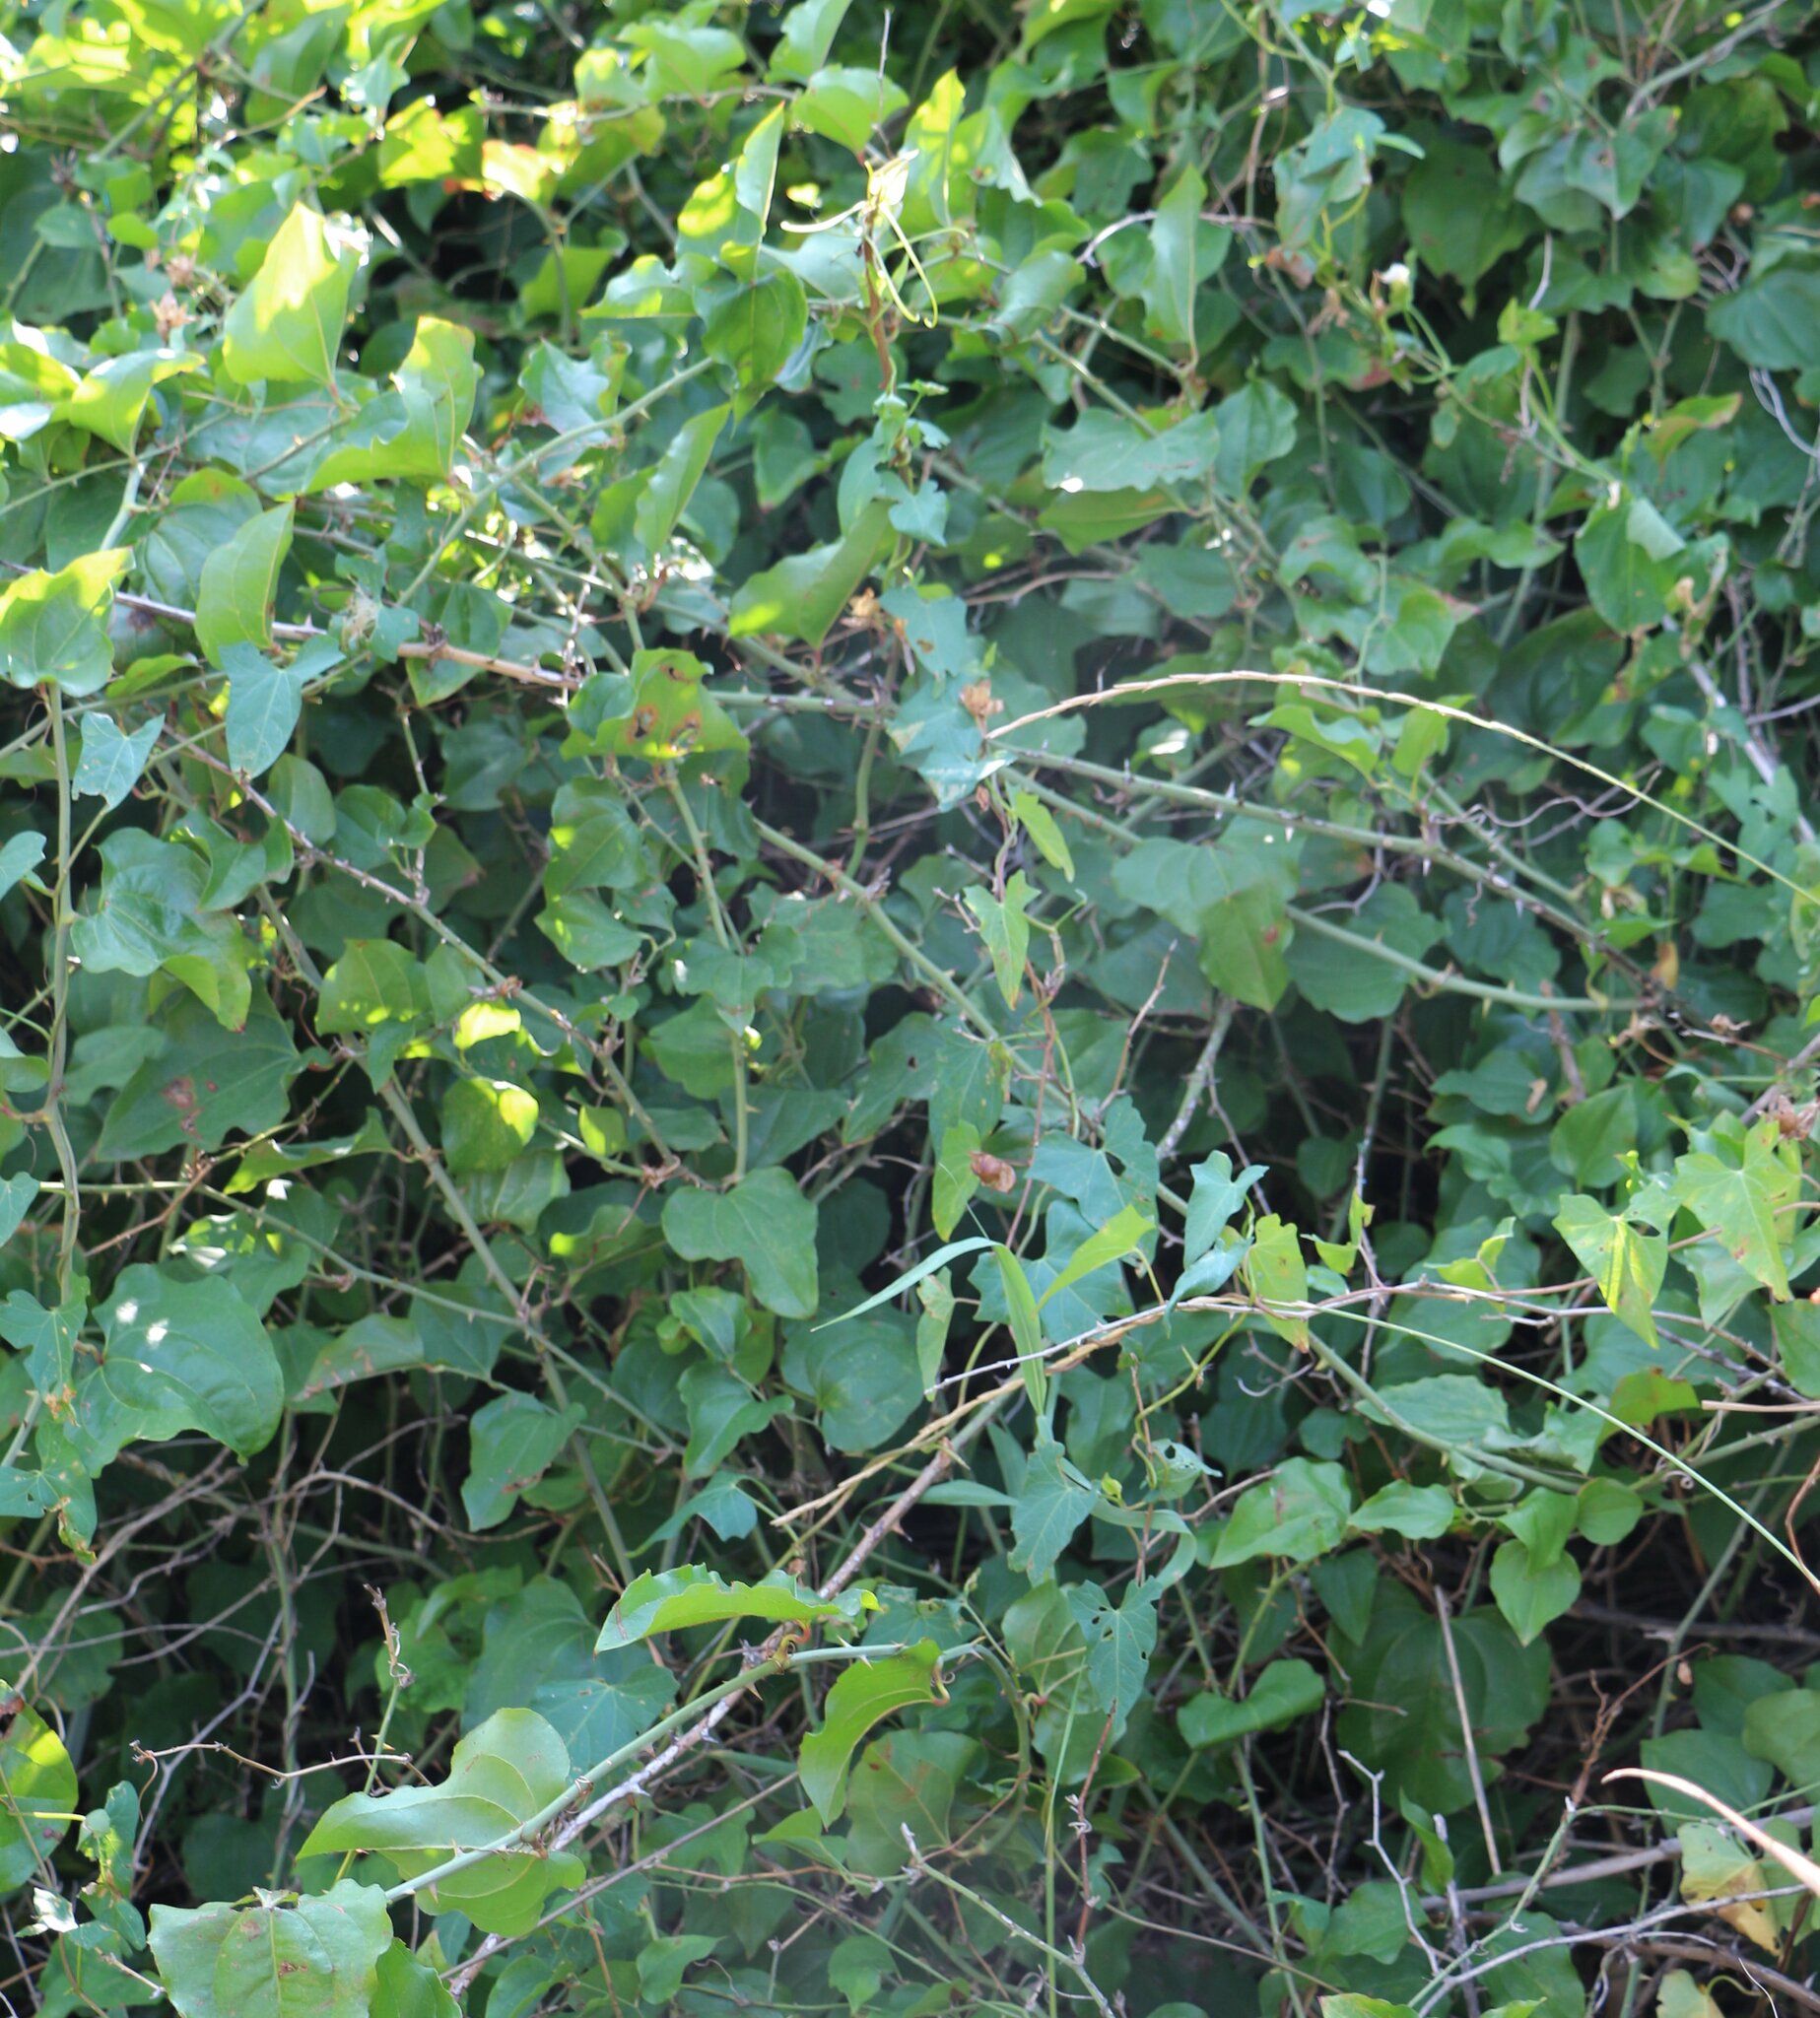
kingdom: Plantae
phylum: Tracheophyta
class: Liliopsida
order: Liliales
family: Smilacaceae
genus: Smilax
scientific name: Smilax excelsa
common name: Larger smilax
